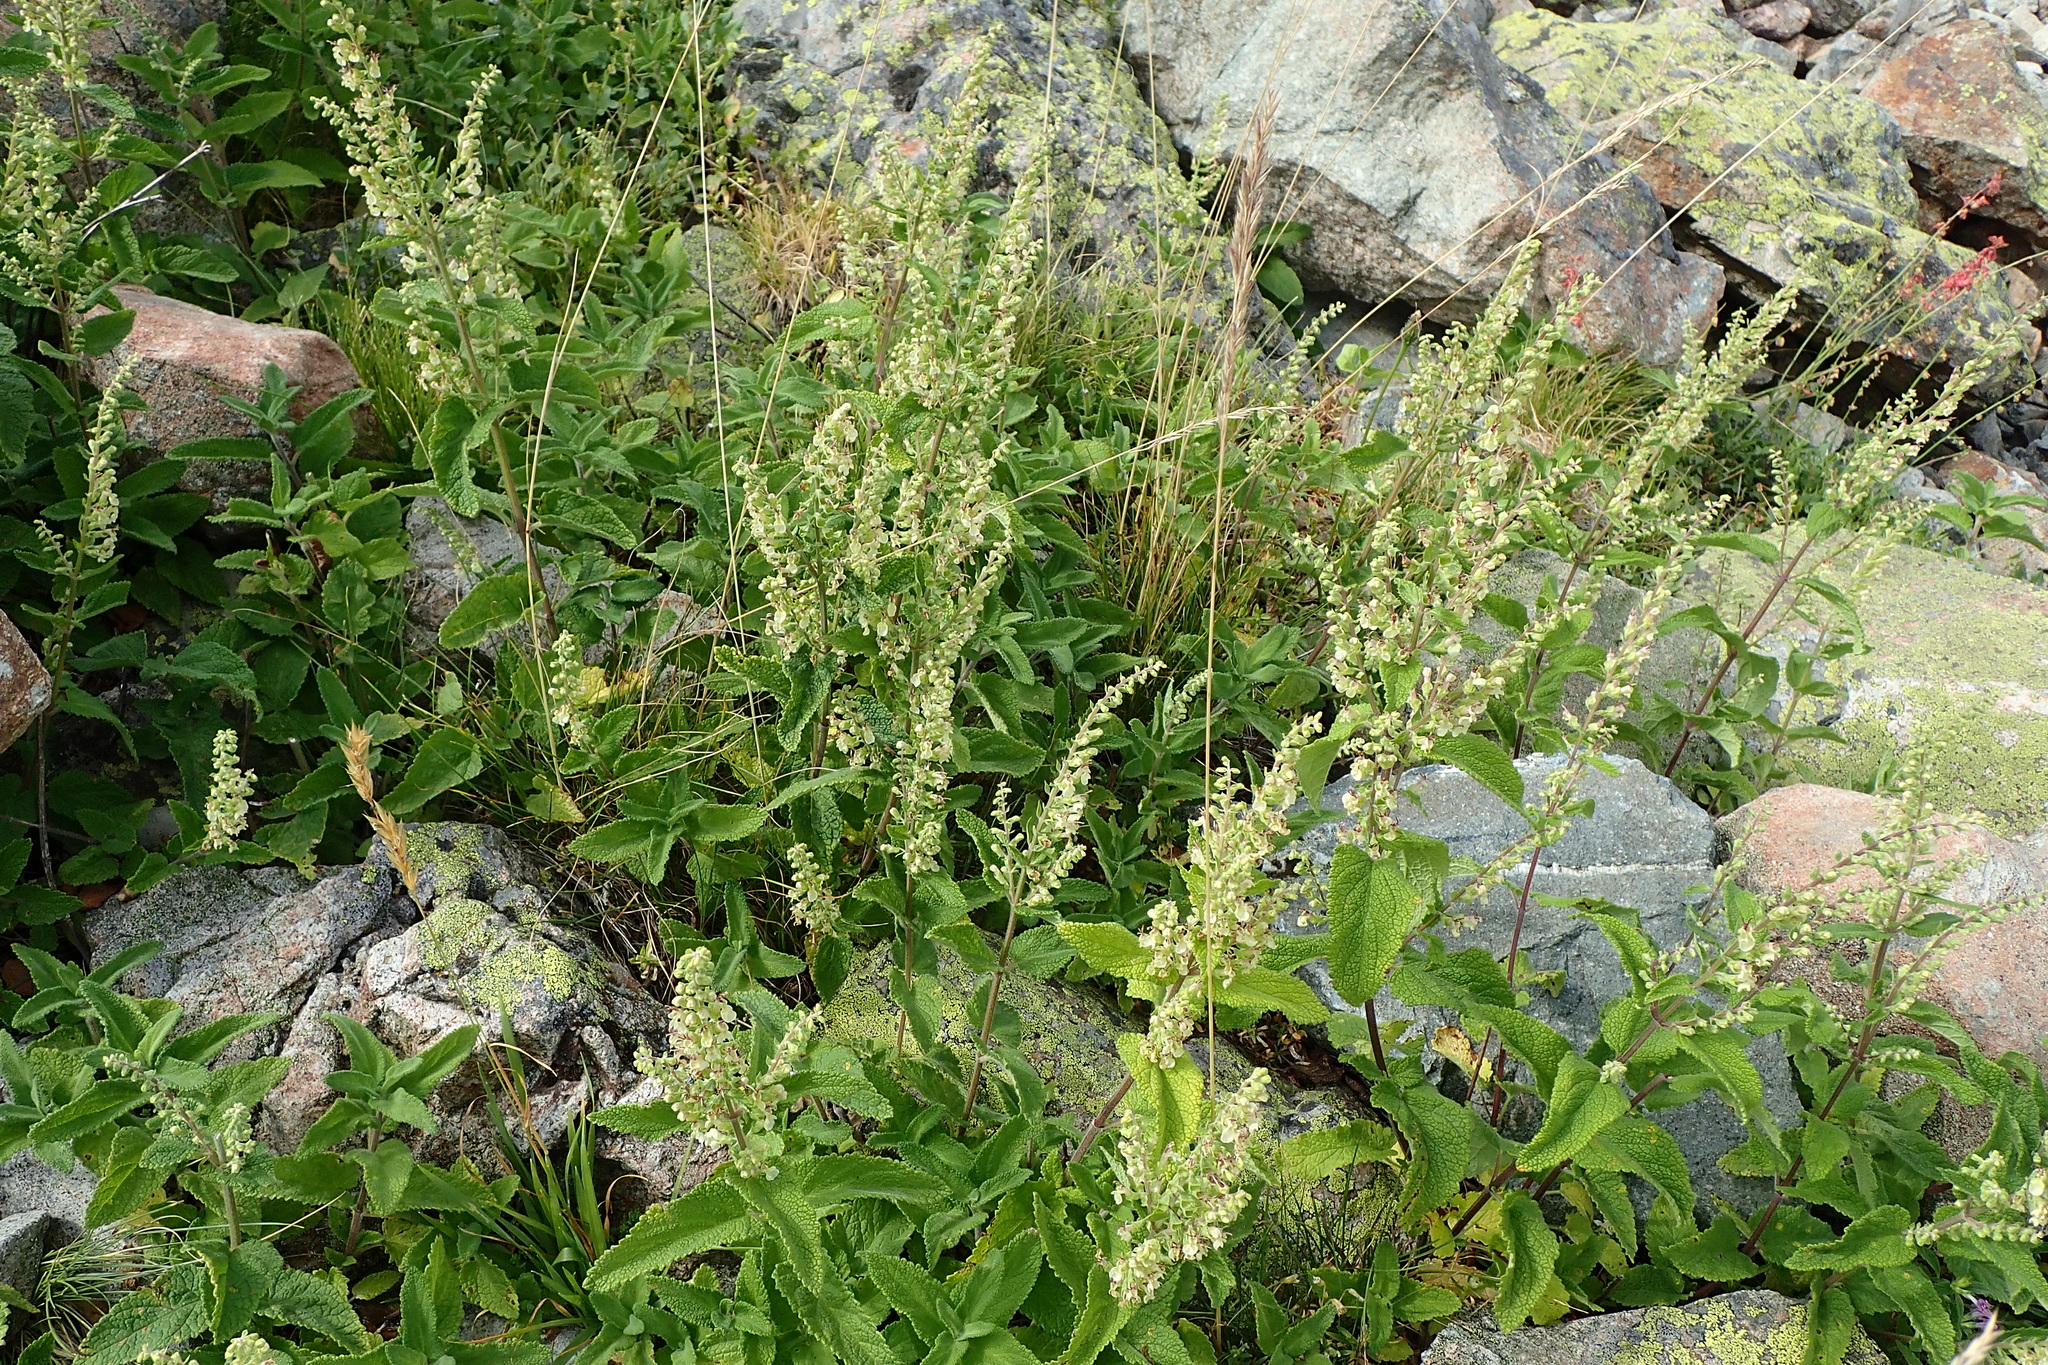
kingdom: Plantae
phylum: Tracheophyta
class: Magnoliopsida
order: Lamiales
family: Lamiaceae
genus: Teucrium
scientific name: Teucrium scorodonia
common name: Woodland germander
